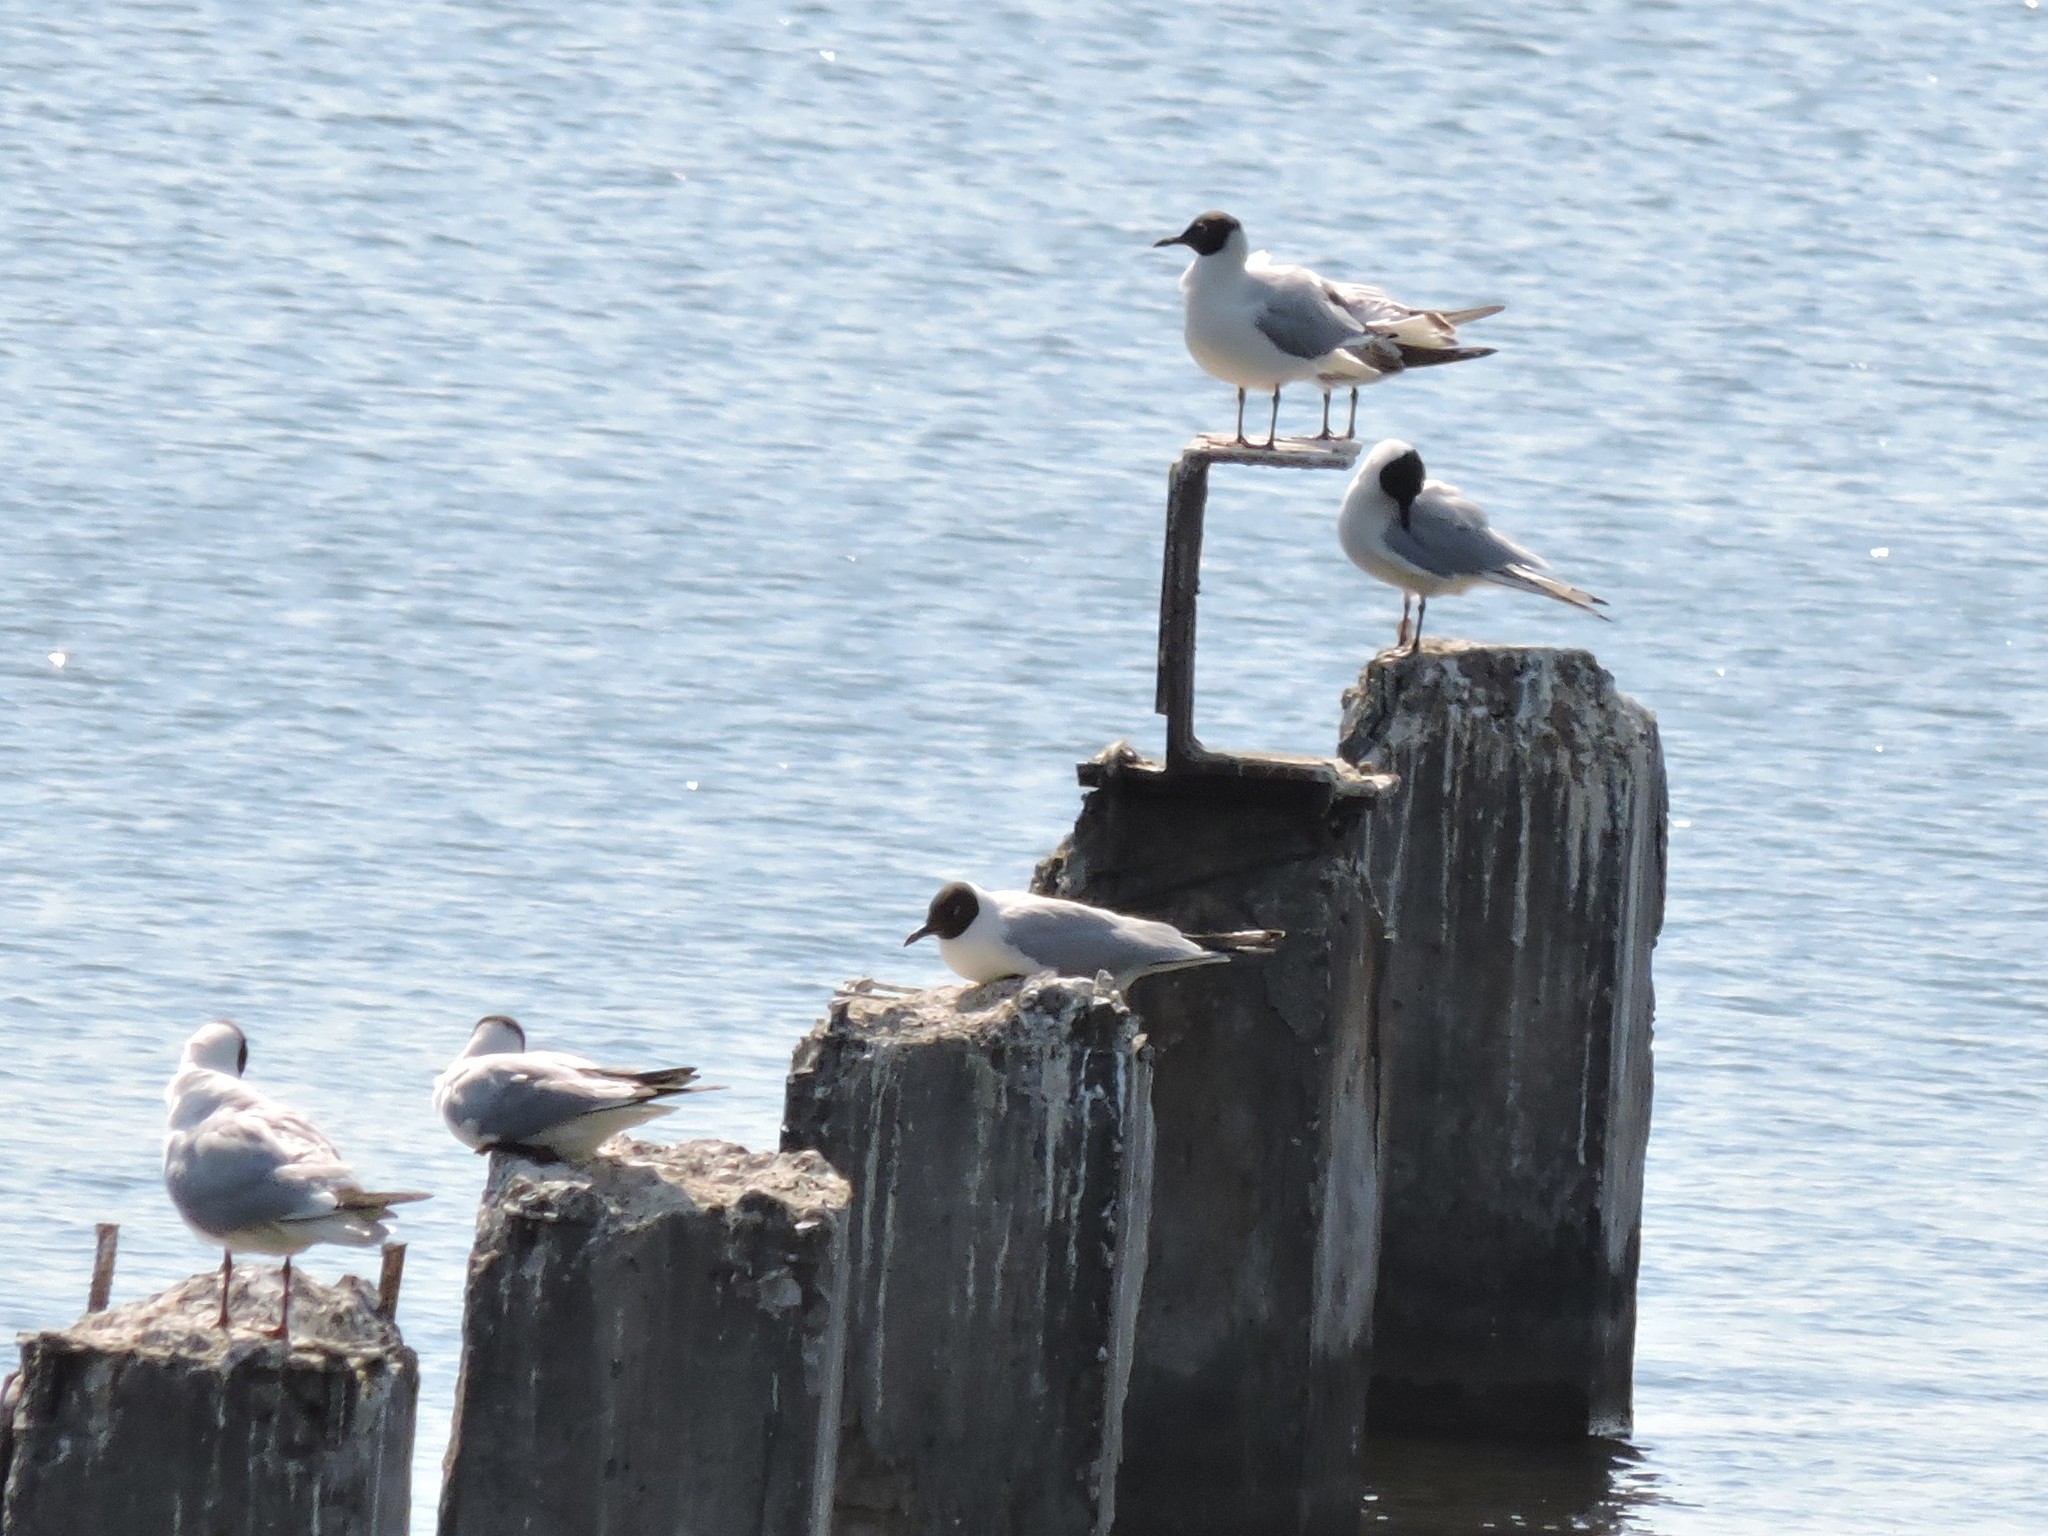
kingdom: Animalia
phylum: Chordata
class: Aves
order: Charadriiformes
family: Laridae
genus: Chroicocephalus
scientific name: Chroicocephalus ridibundus
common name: Black-headed gull
